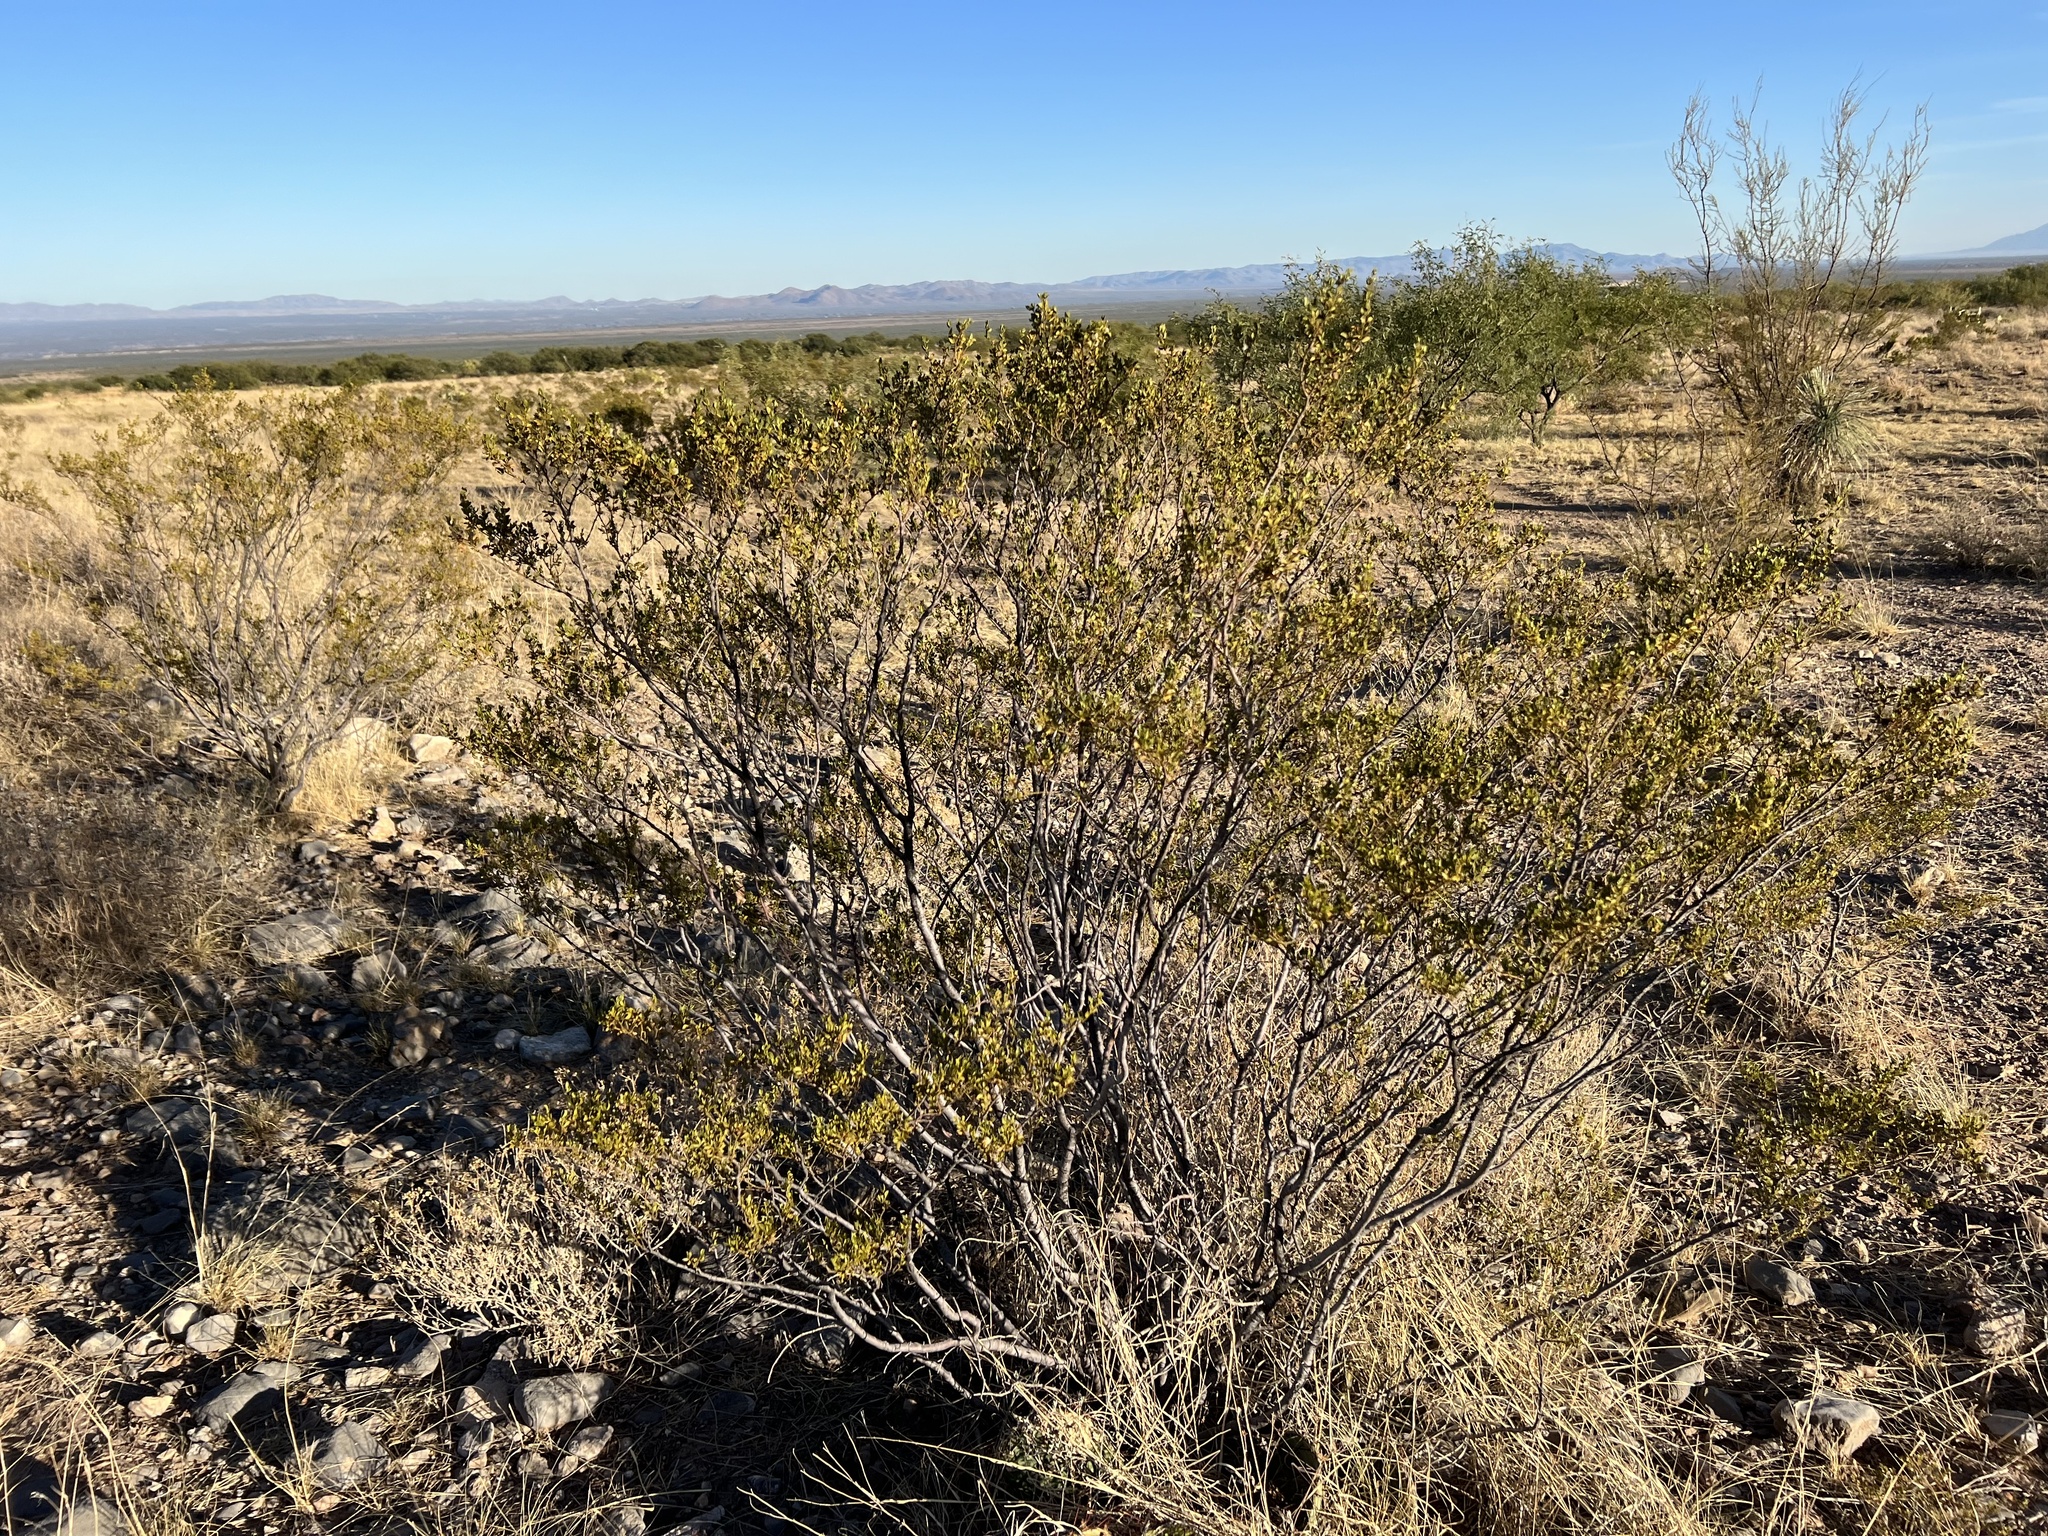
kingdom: Plantae
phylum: Tracheophyta
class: Magnoliopsida
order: Zygophyllales
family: Zygophyllaceae
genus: Larrea
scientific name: Larrea tridentata
